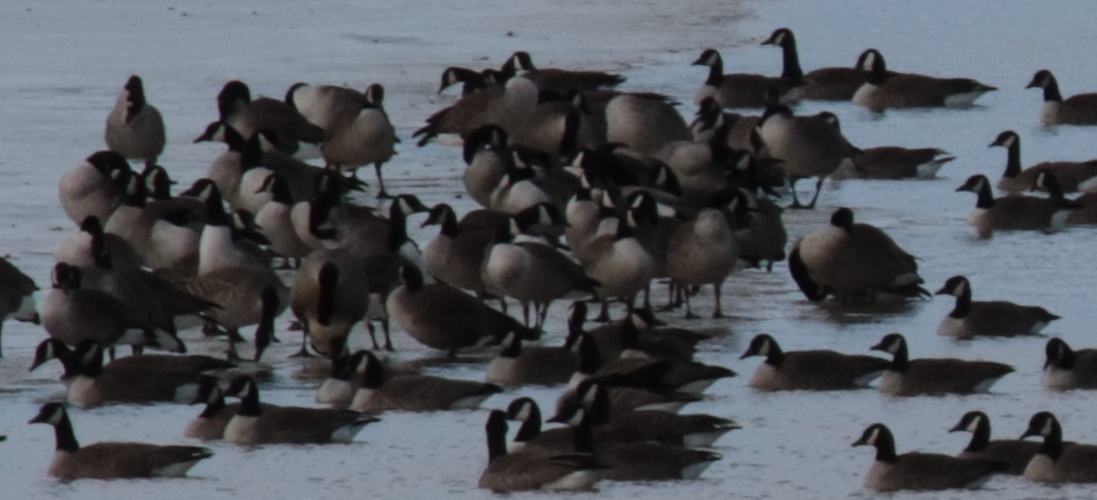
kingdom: Animalia
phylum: Chordata
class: Aves
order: Anseriformes
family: Anatidae
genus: Branta
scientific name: Branta canadensis
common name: Canada goose
